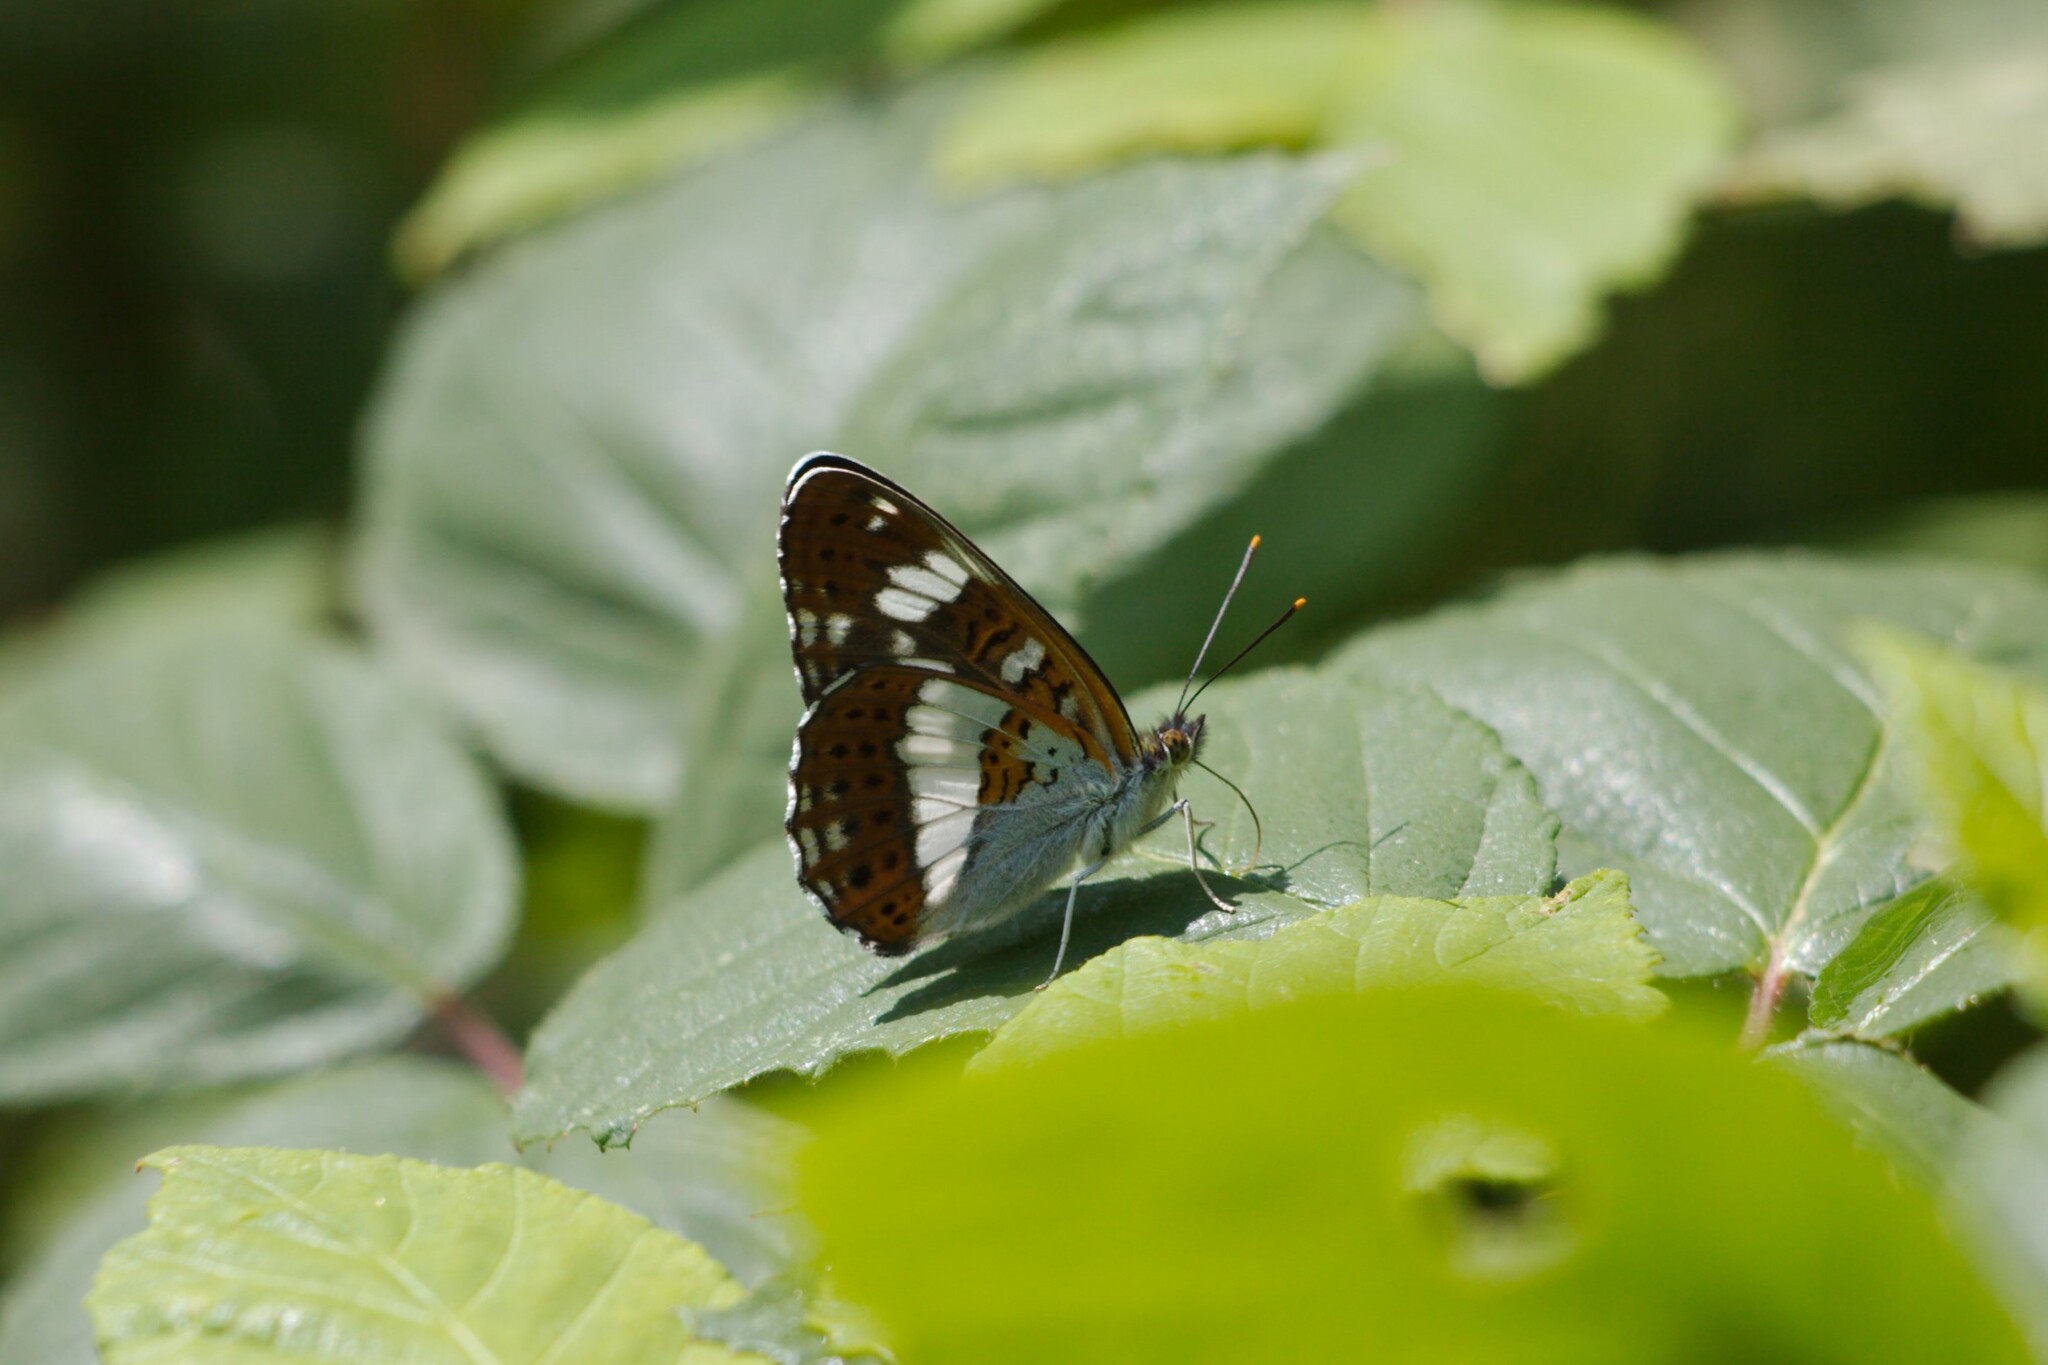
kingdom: Animalia
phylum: Arthropoda
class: Insecta
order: Lepidoptera
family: Nymphalidae
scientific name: Nymphalidae
